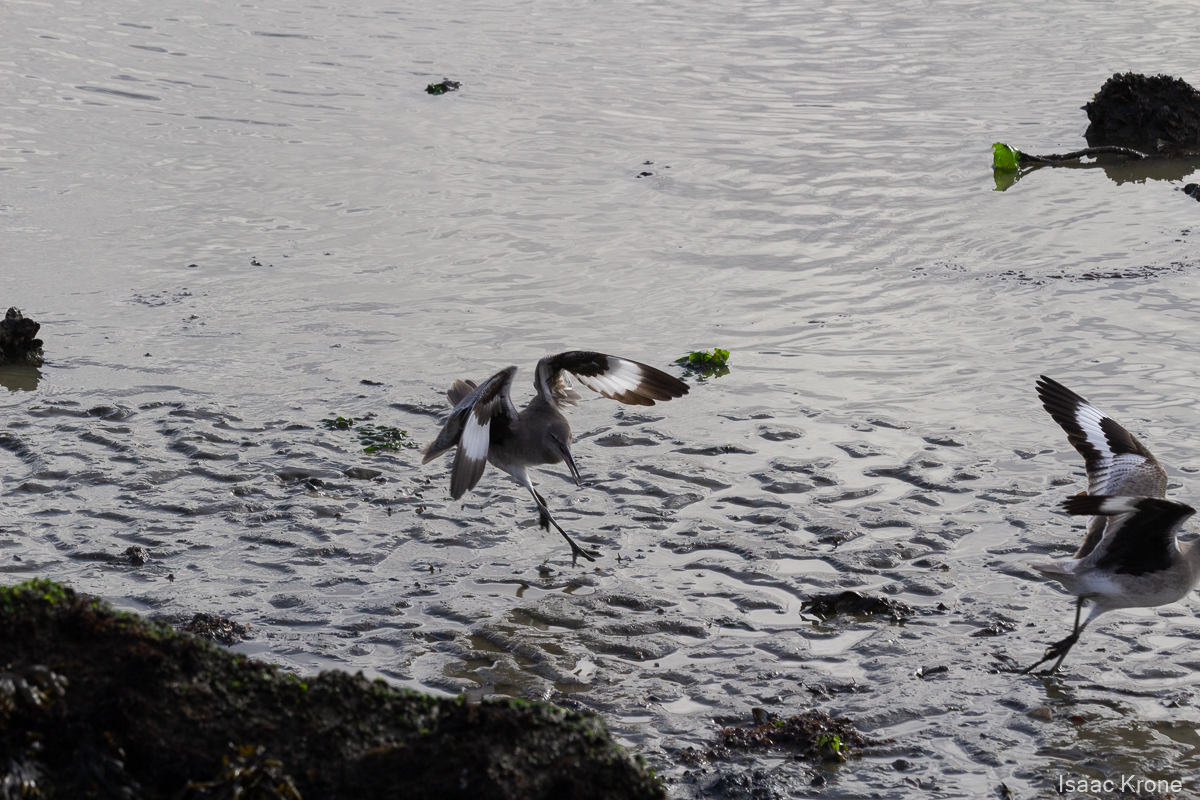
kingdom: Animalia
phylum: Chordata
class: Aves
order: Charadriiformes
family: Scolopacidae
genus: Tringa
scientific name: Tringa semipalmata
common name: Willet
